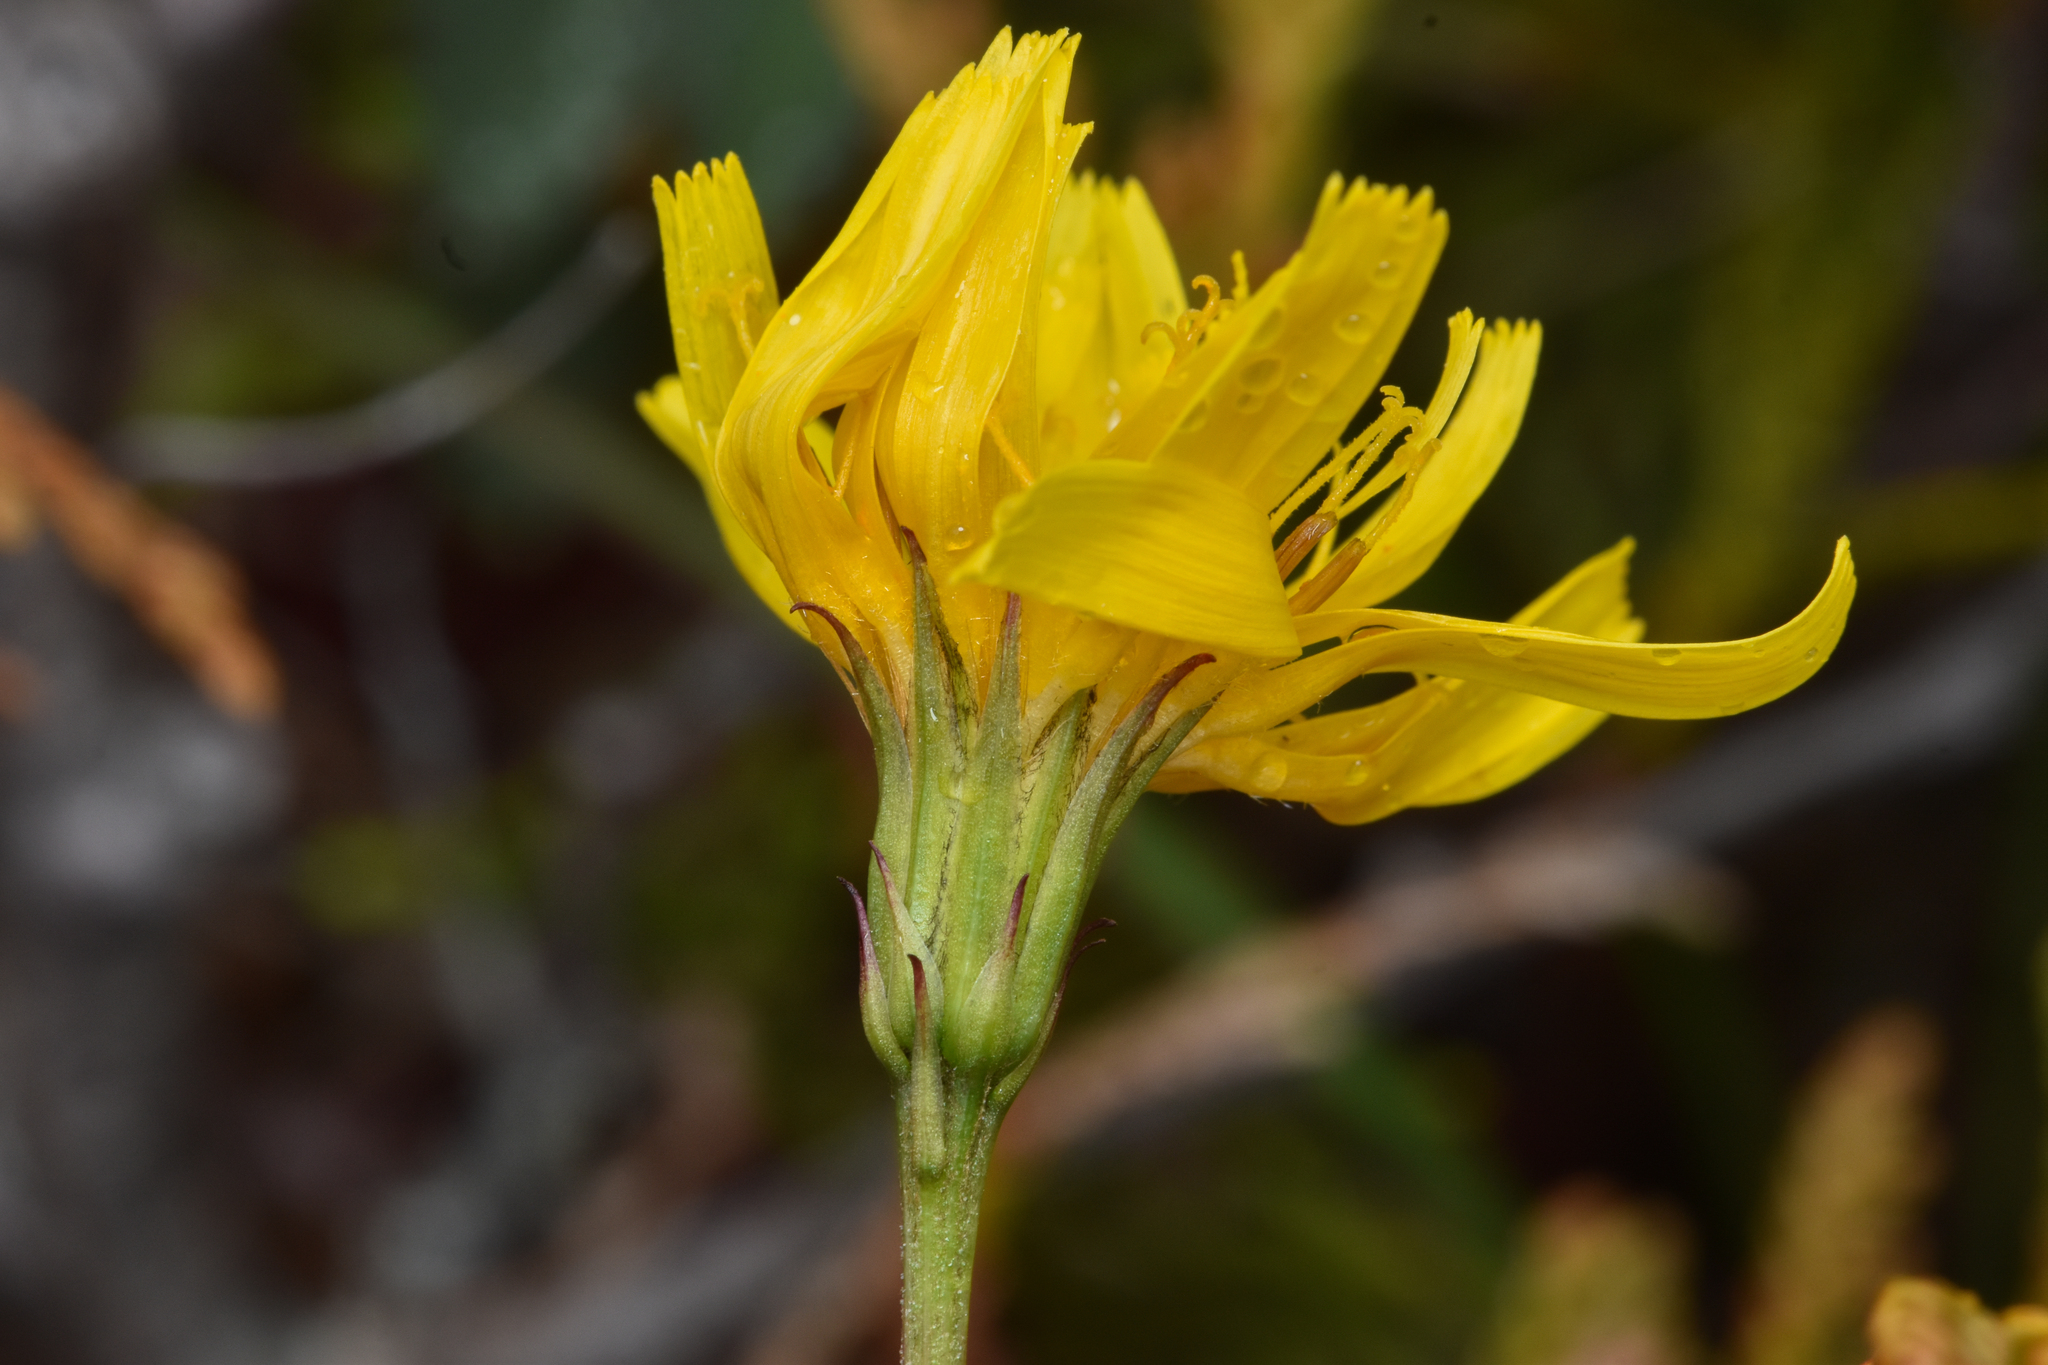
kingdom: Plantae
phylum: Tracheophyta
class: Magnoliopsida
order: Asterales
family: Asteraceae
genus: Microseris
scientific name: Microseris borealis
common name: Northern microseris
